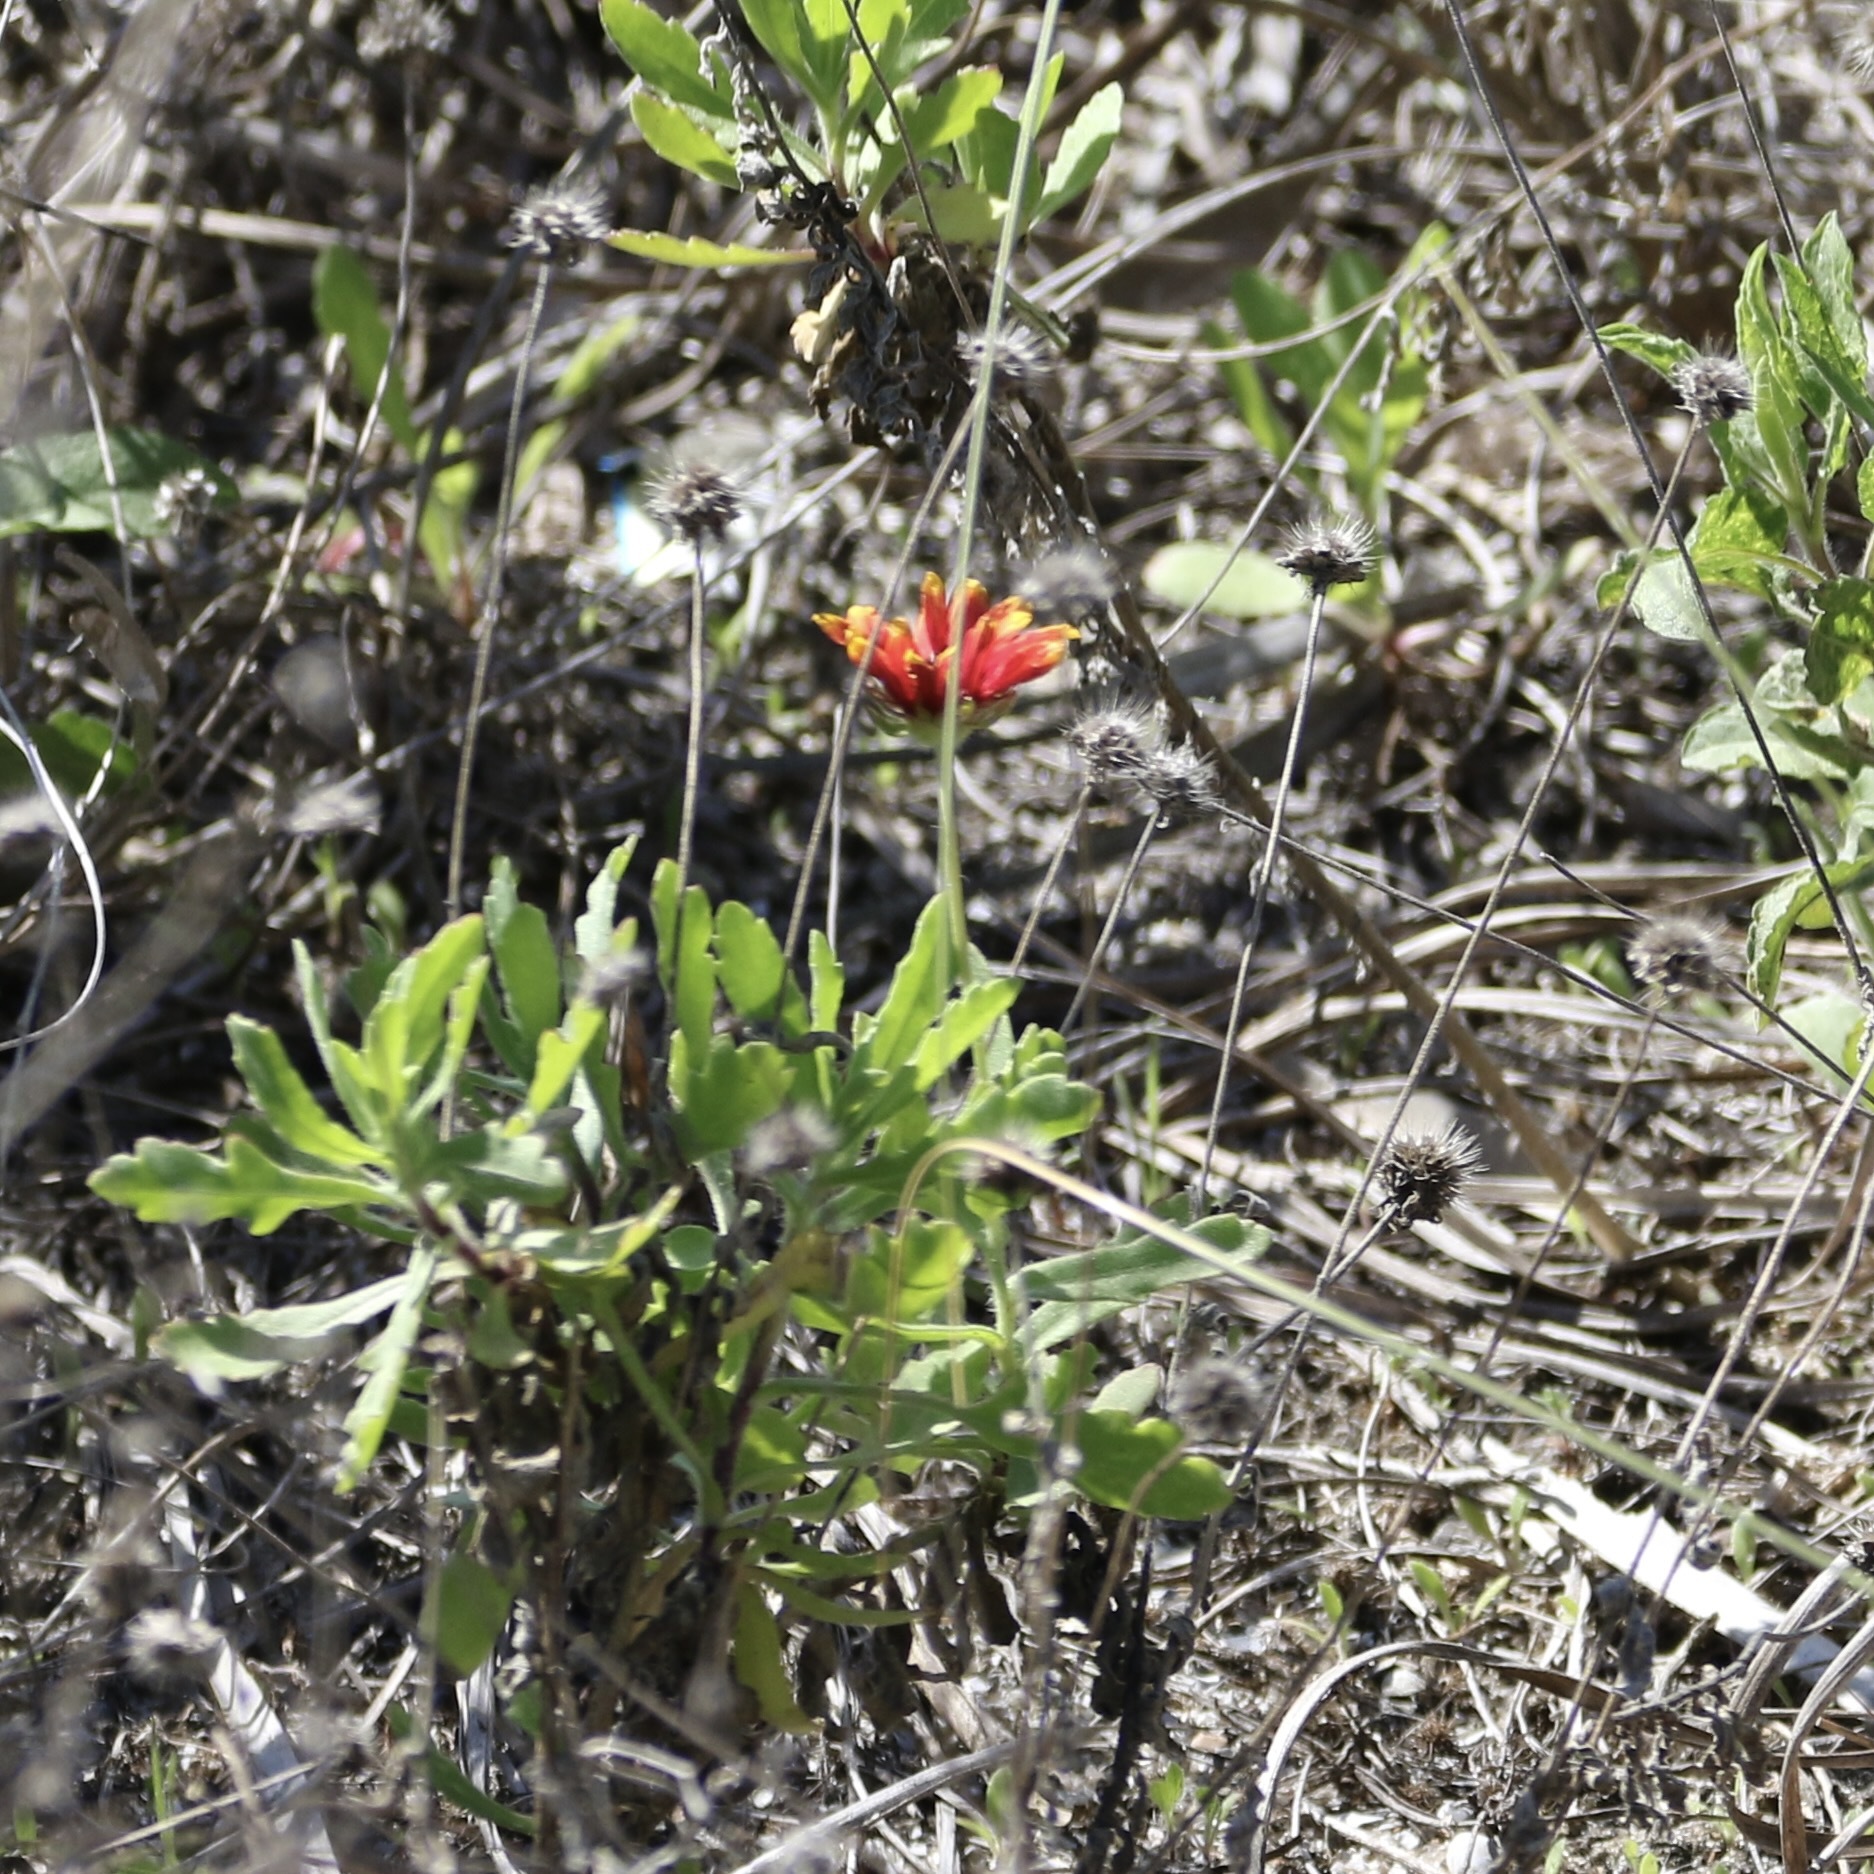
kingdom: Plantae
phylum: Tracheophyta
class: Magnoliopsida
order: Asterales
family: Asteraceae
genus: Gaillardia
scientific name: Gaillardia pulchella
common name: Firewheel
